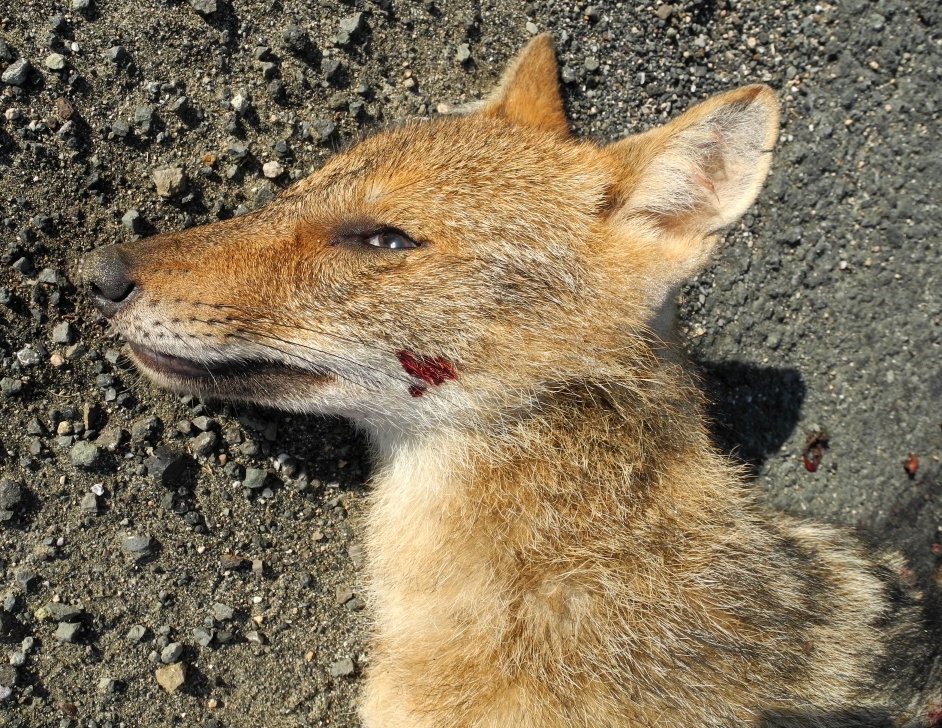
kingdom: Animalia
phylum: Chordata
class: Mammalia
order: Carnivora
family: Canidae
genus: Canis
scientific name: Canis aureus
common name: Golden jackal
